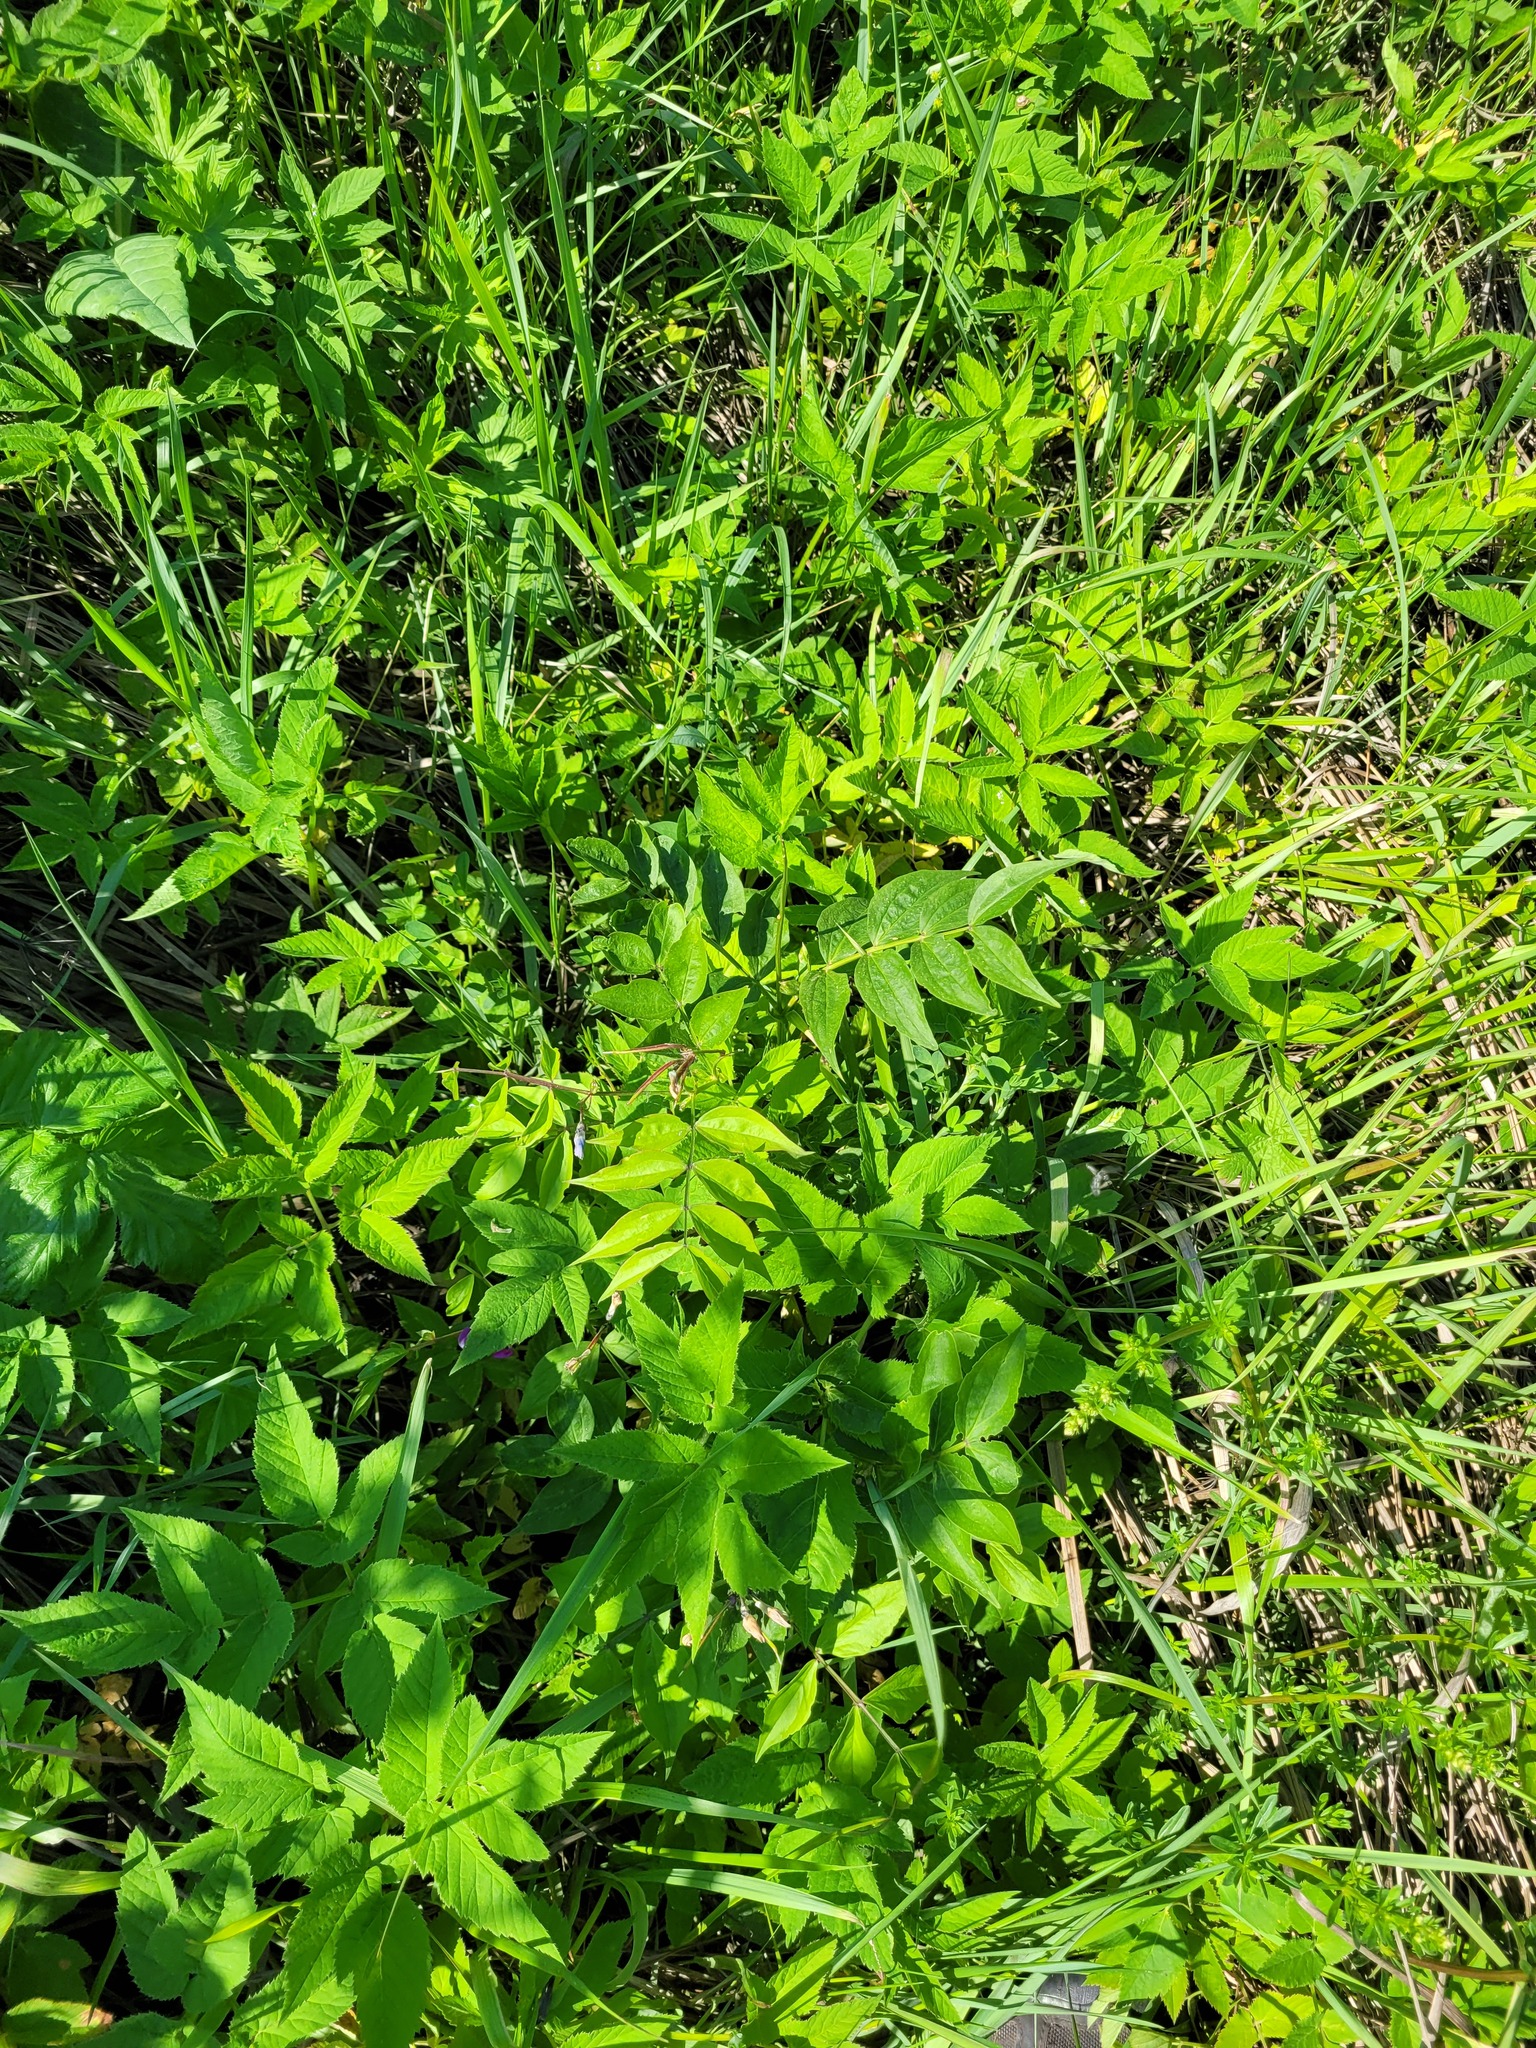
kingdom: Plantae
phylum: Tracheophyta
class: Magnoliopsida
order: Fabales
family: Fabaceae
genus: Lathyrus
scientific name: Lathyrus vernus
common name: Spring pea
